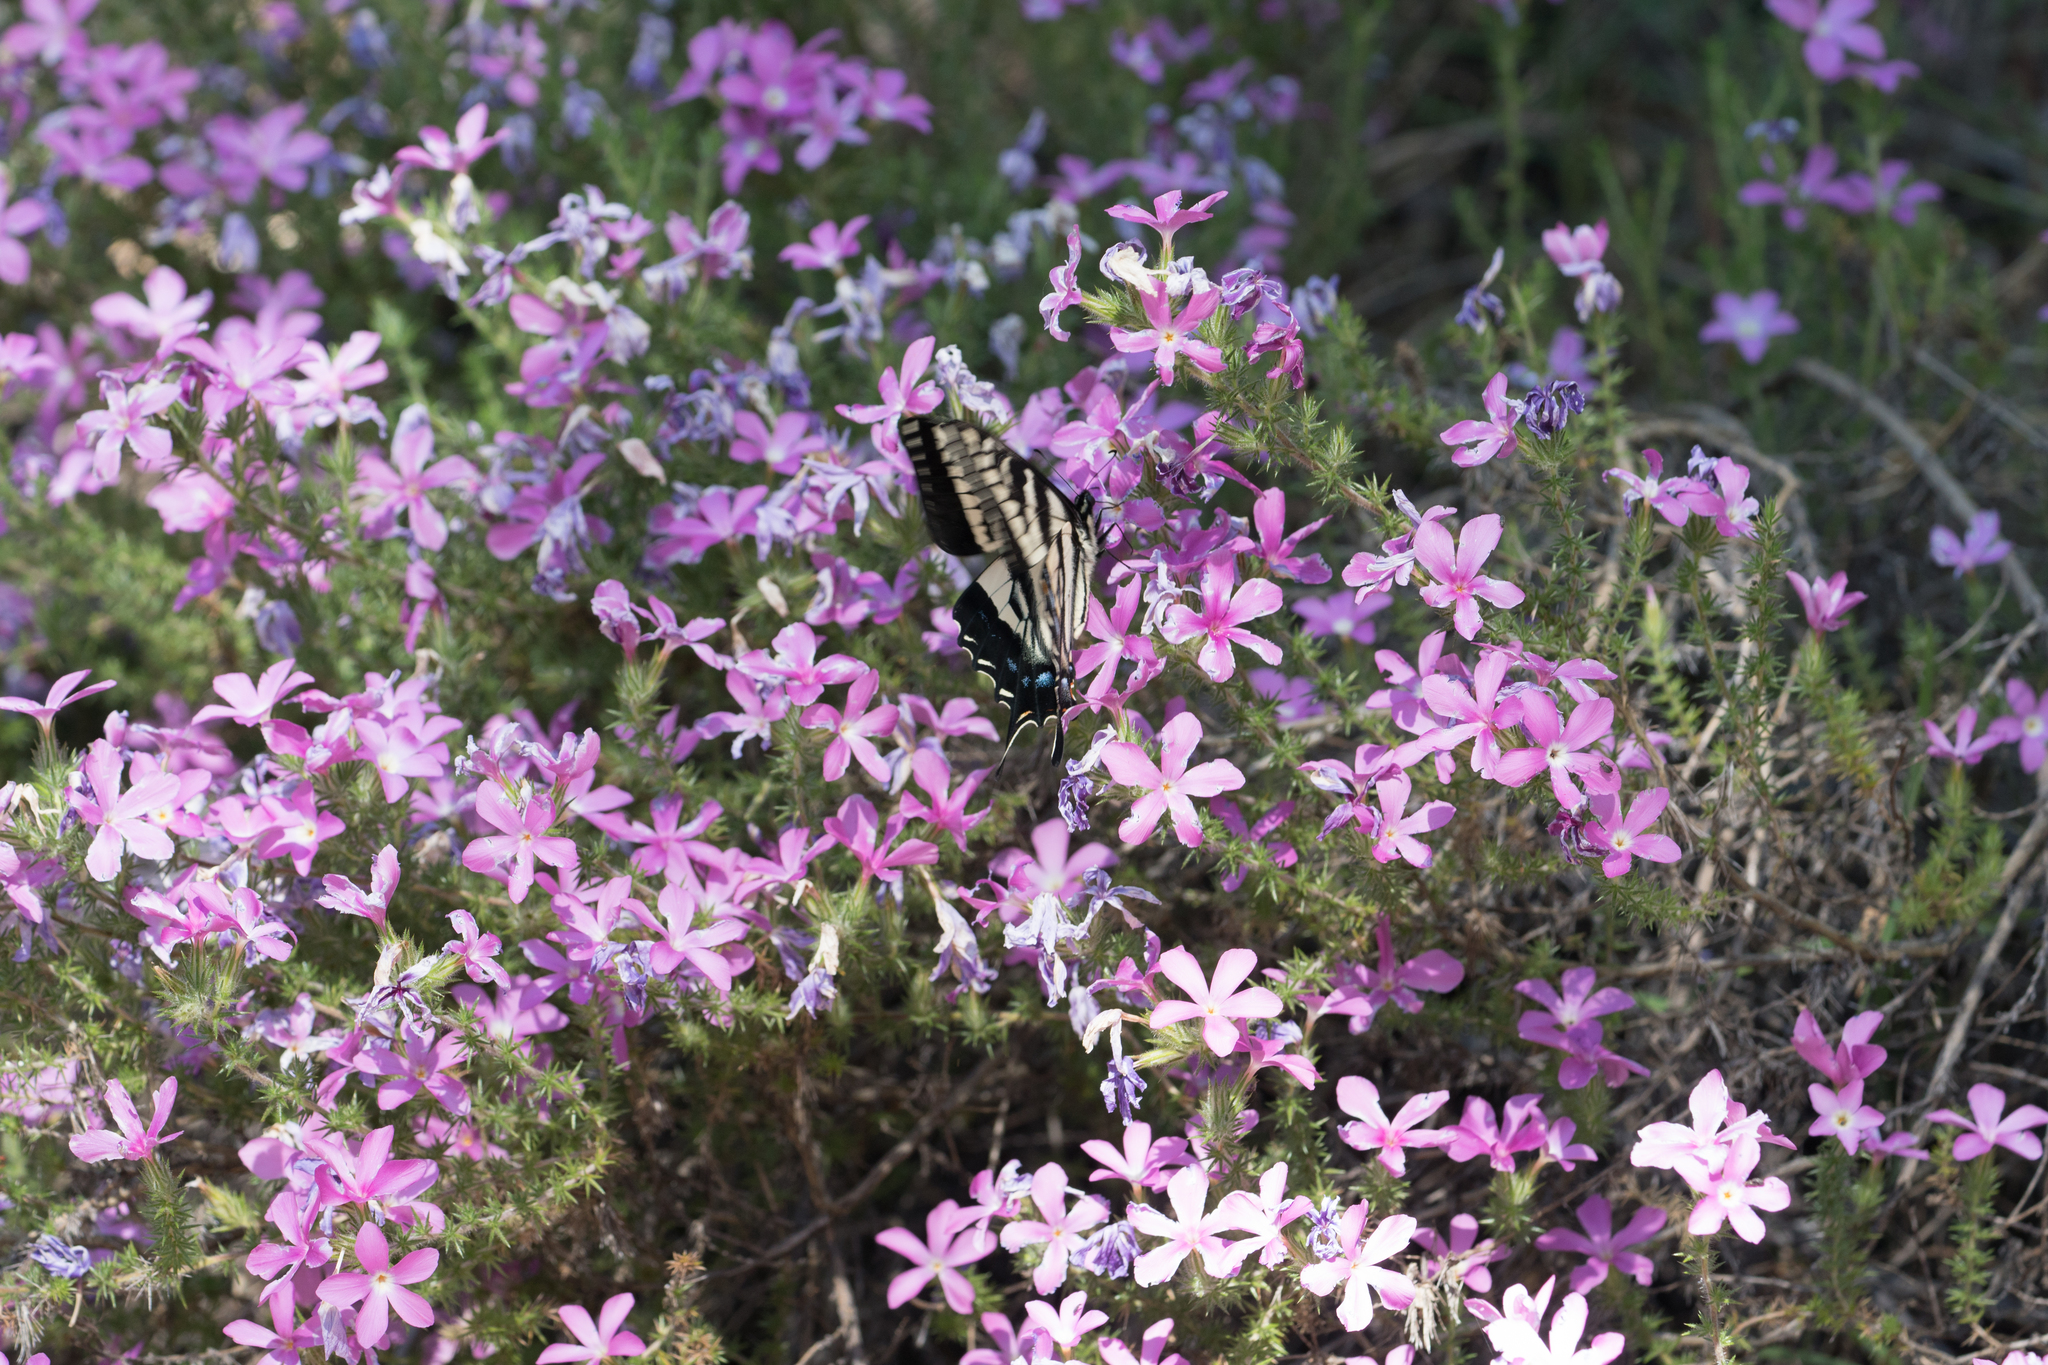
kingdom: Plantae
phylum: Tracheophyta
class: Magnoliopsida
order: Ericales
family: Polemoniaceae
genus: Linanthus
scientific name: Linanthus californicus
